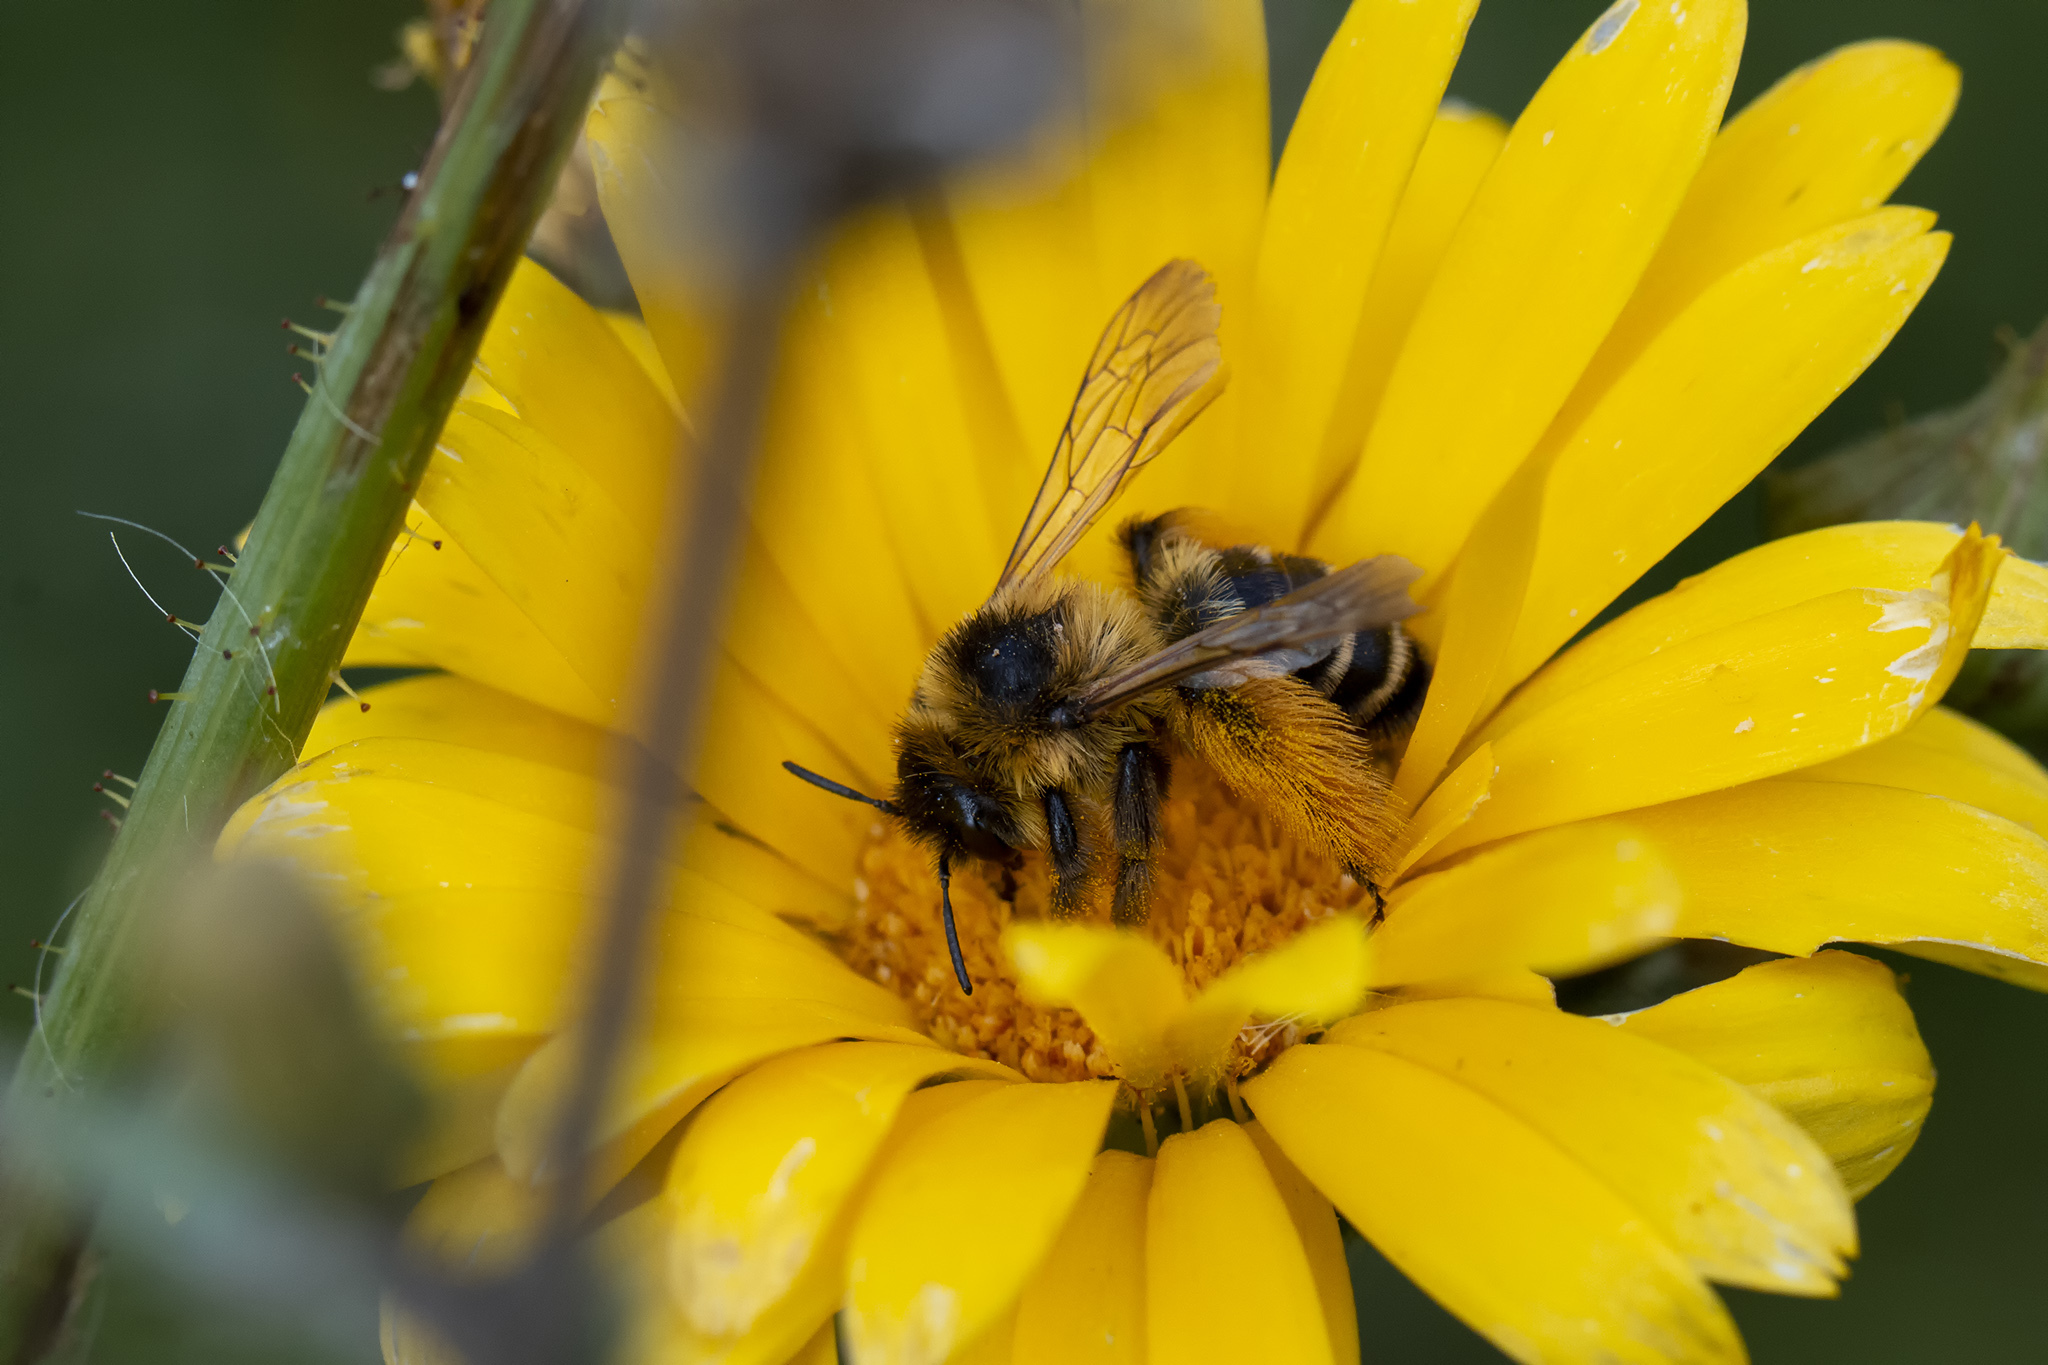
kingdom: Animalia
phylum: Arthropoda
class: Insecta
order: Hymenoptera
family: Melittidae
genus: Dasypoda
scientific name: Dasypoda hirtipes
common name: Pantaloon bee
